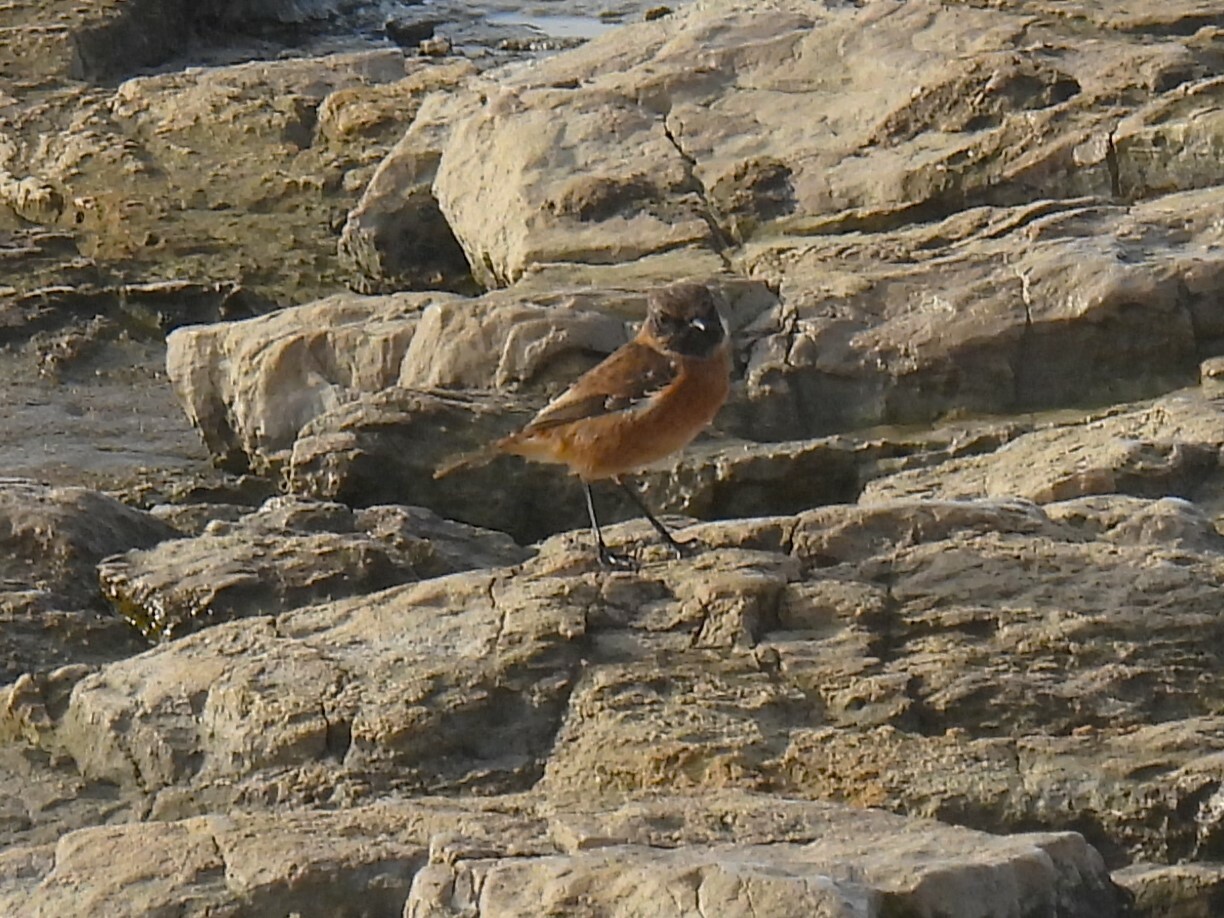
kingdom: Animalia
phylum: Chordata
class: Aves
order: Passeriformes
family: Muscicapidae
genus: Saxicola
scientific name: Saxicola rubicola
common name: European stonechat
